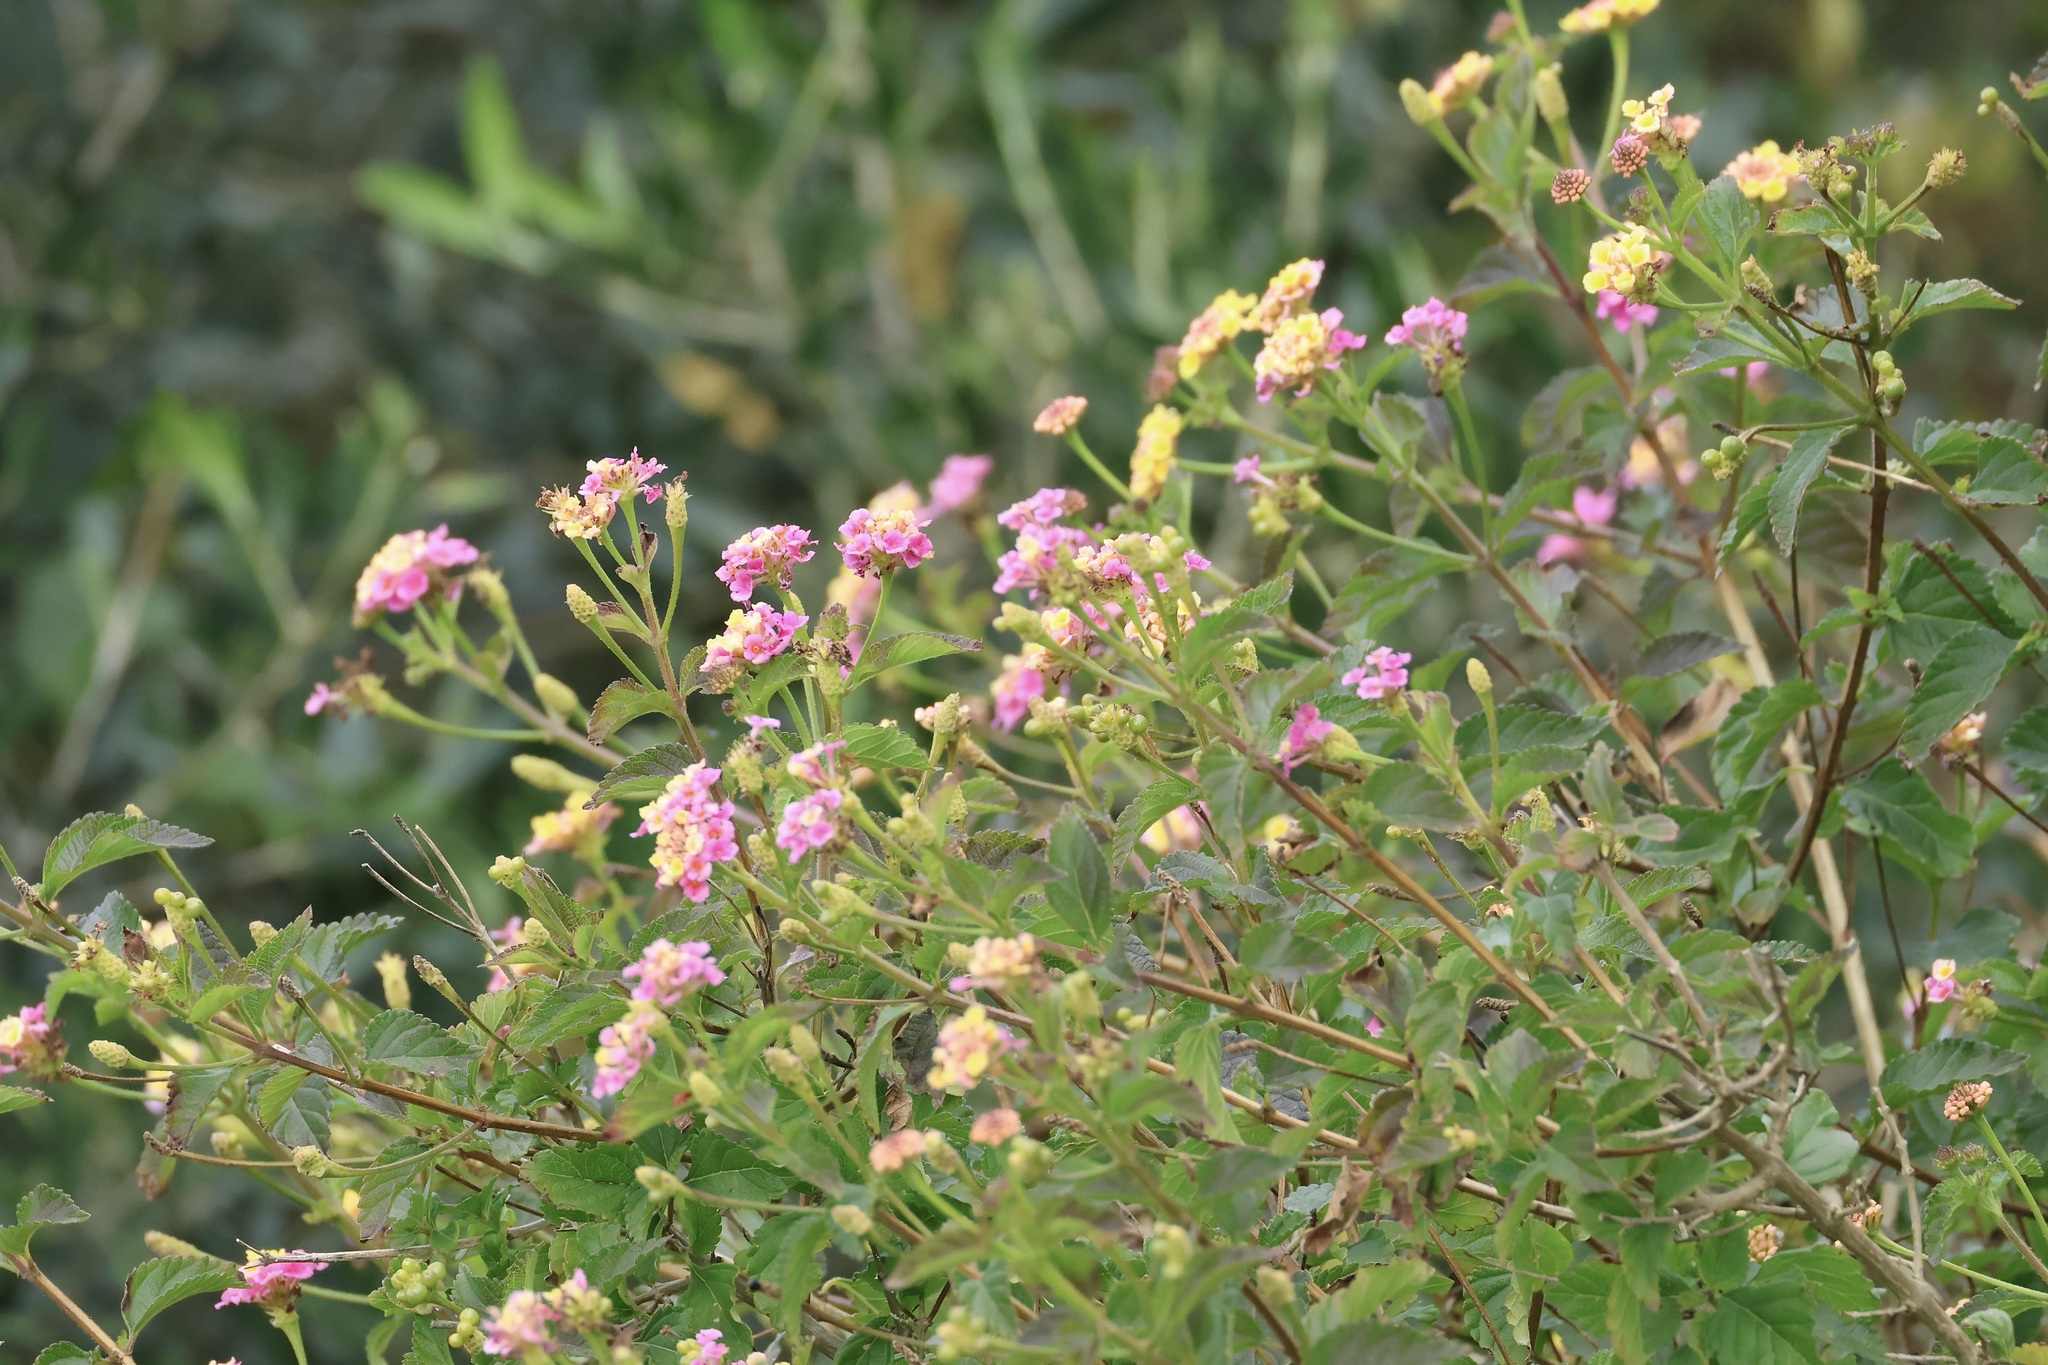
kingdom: Plantae
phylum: Tracheophyta
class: Magnoliopsida
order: Lamiales
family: Verbenaceae
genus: Lantana
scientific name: Lantana camara
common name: Lantana
